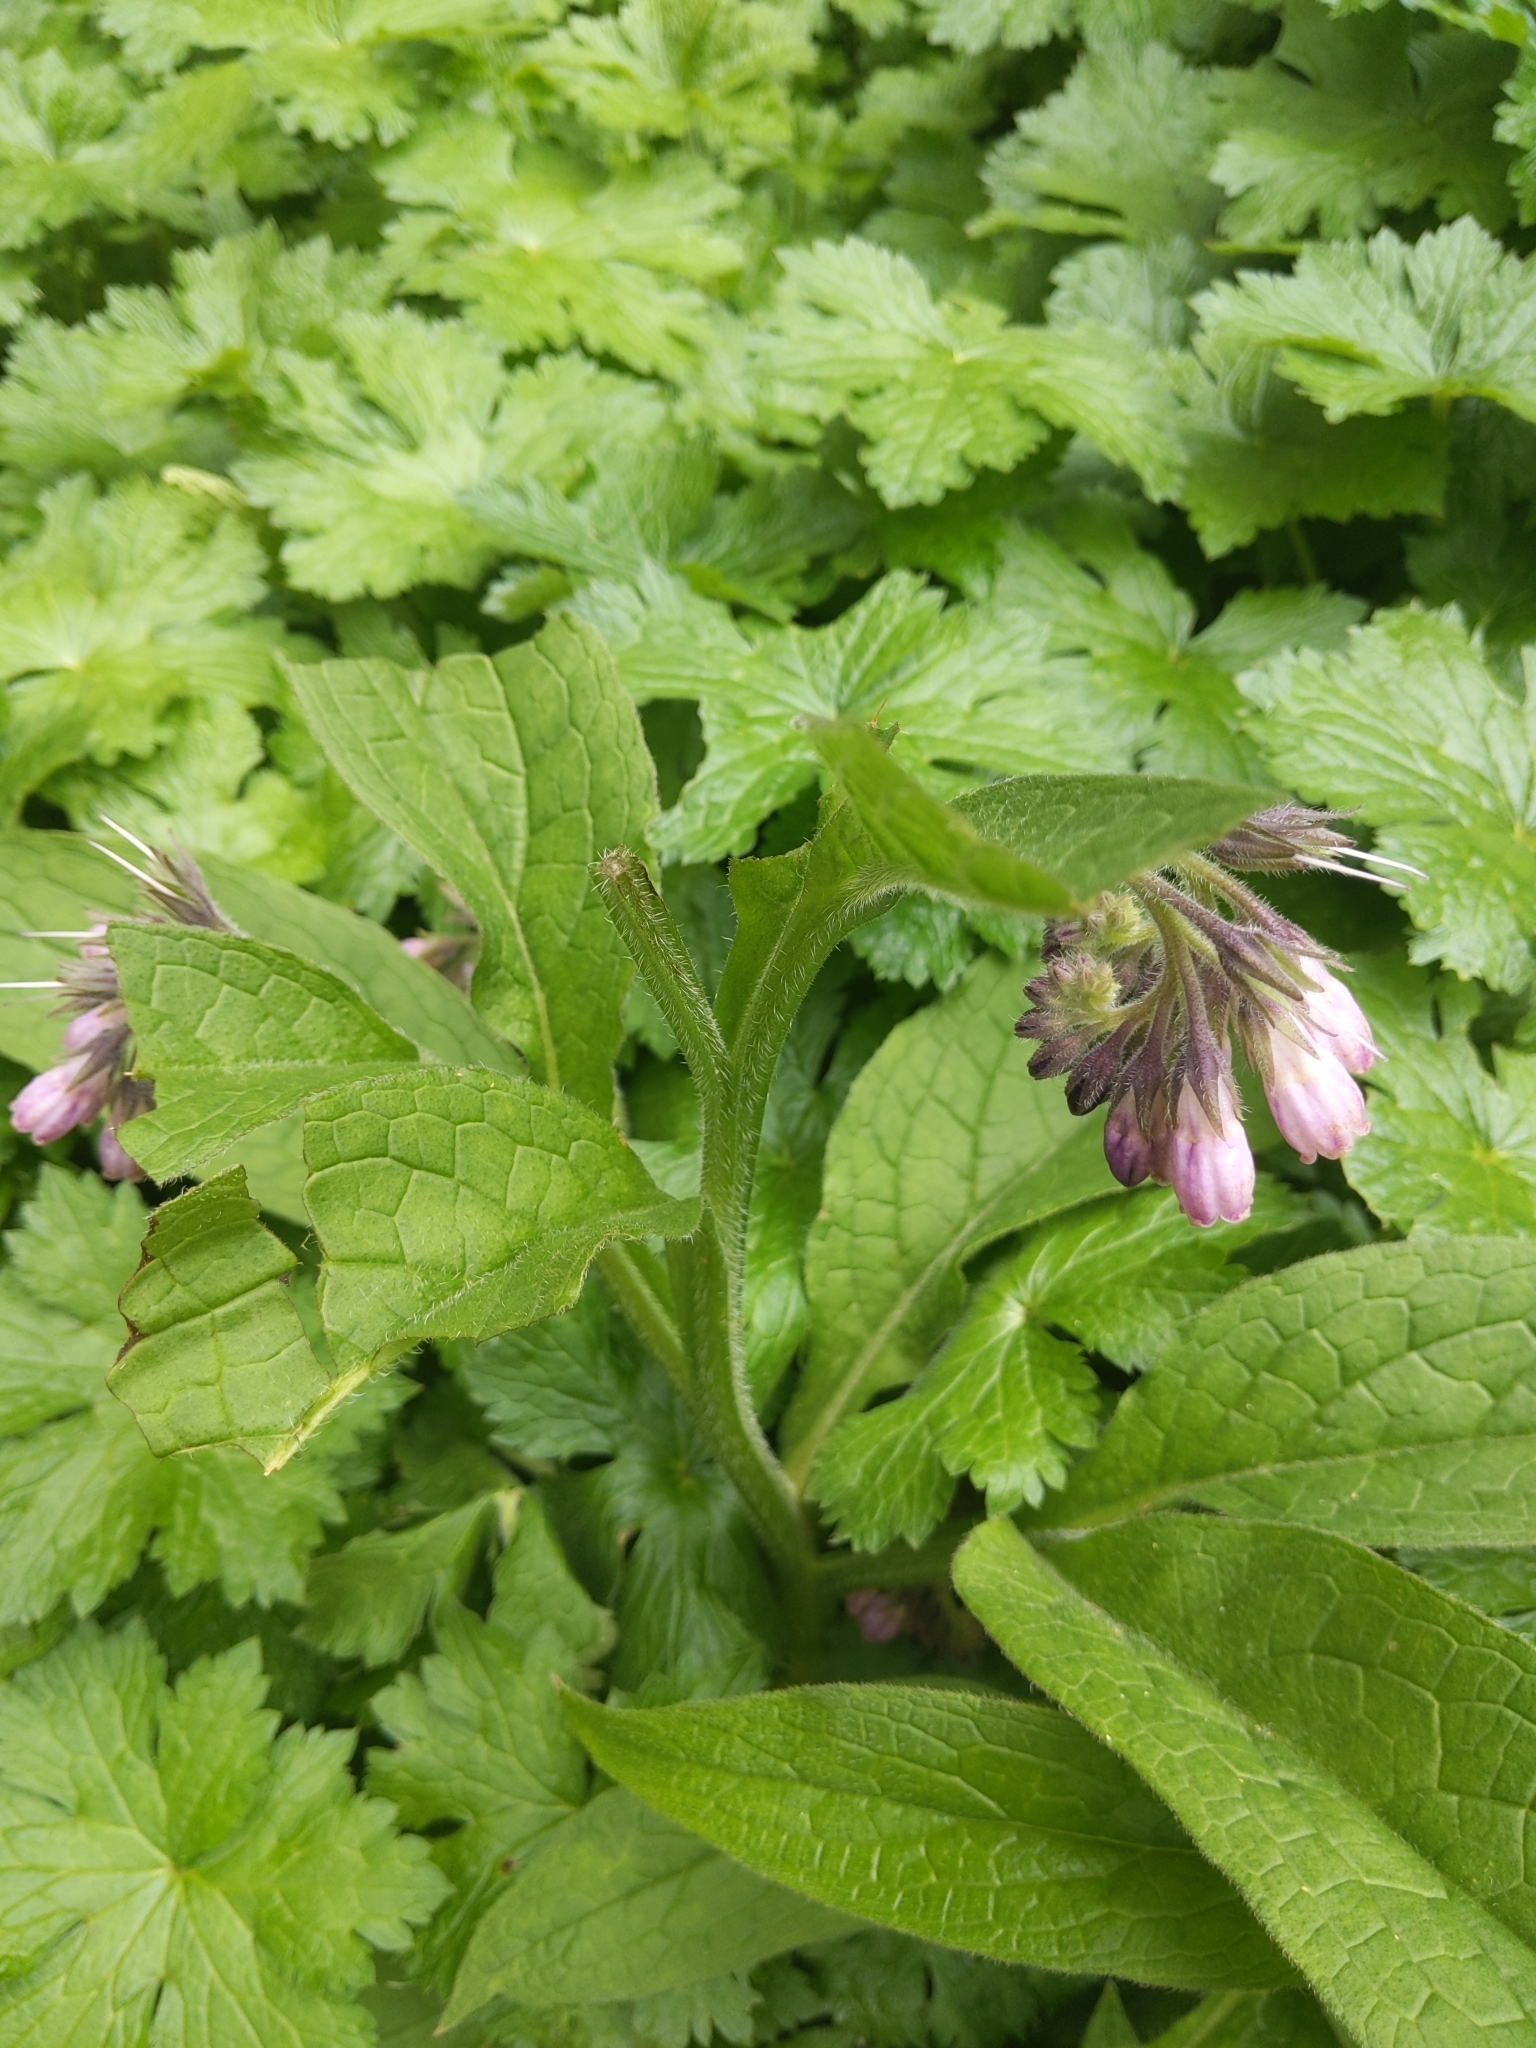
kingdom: Plantae
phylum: Tracheophyta
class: Magnoliopsida
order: Boraginales
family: Boraginaceae
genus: Symphytum
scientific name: Symphytum officinale
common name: Common comfrey
